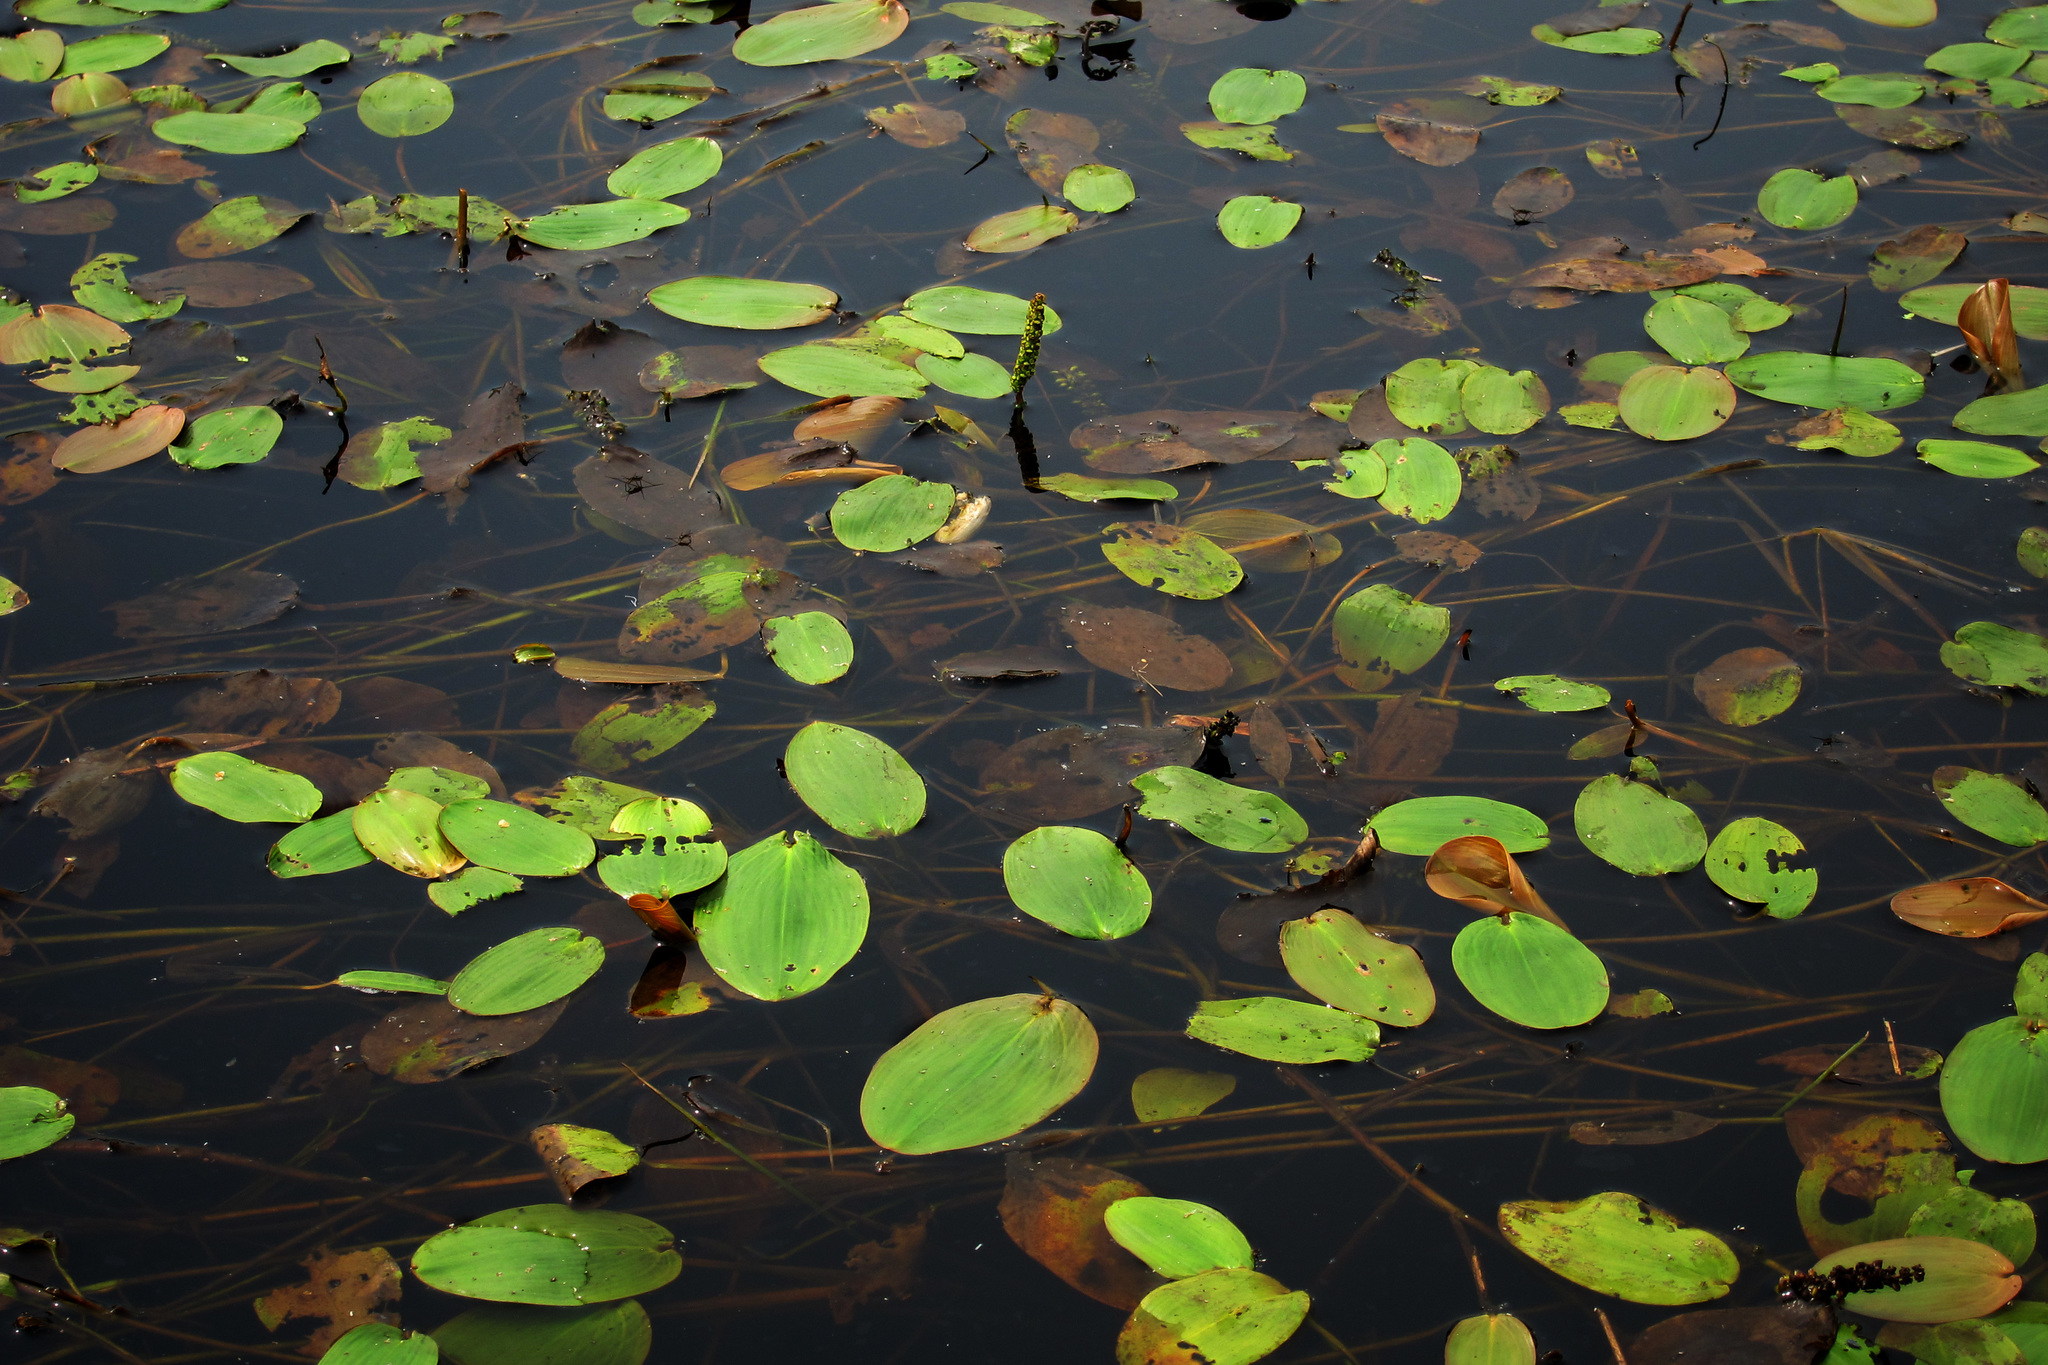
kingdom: Plantae
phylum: Tracheophyta
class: Liliopsida
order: Alismatales
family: Potamogetonaceae
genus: Potamogeton
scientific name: Potamogeton natans
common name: Broad-leaved pondweed
